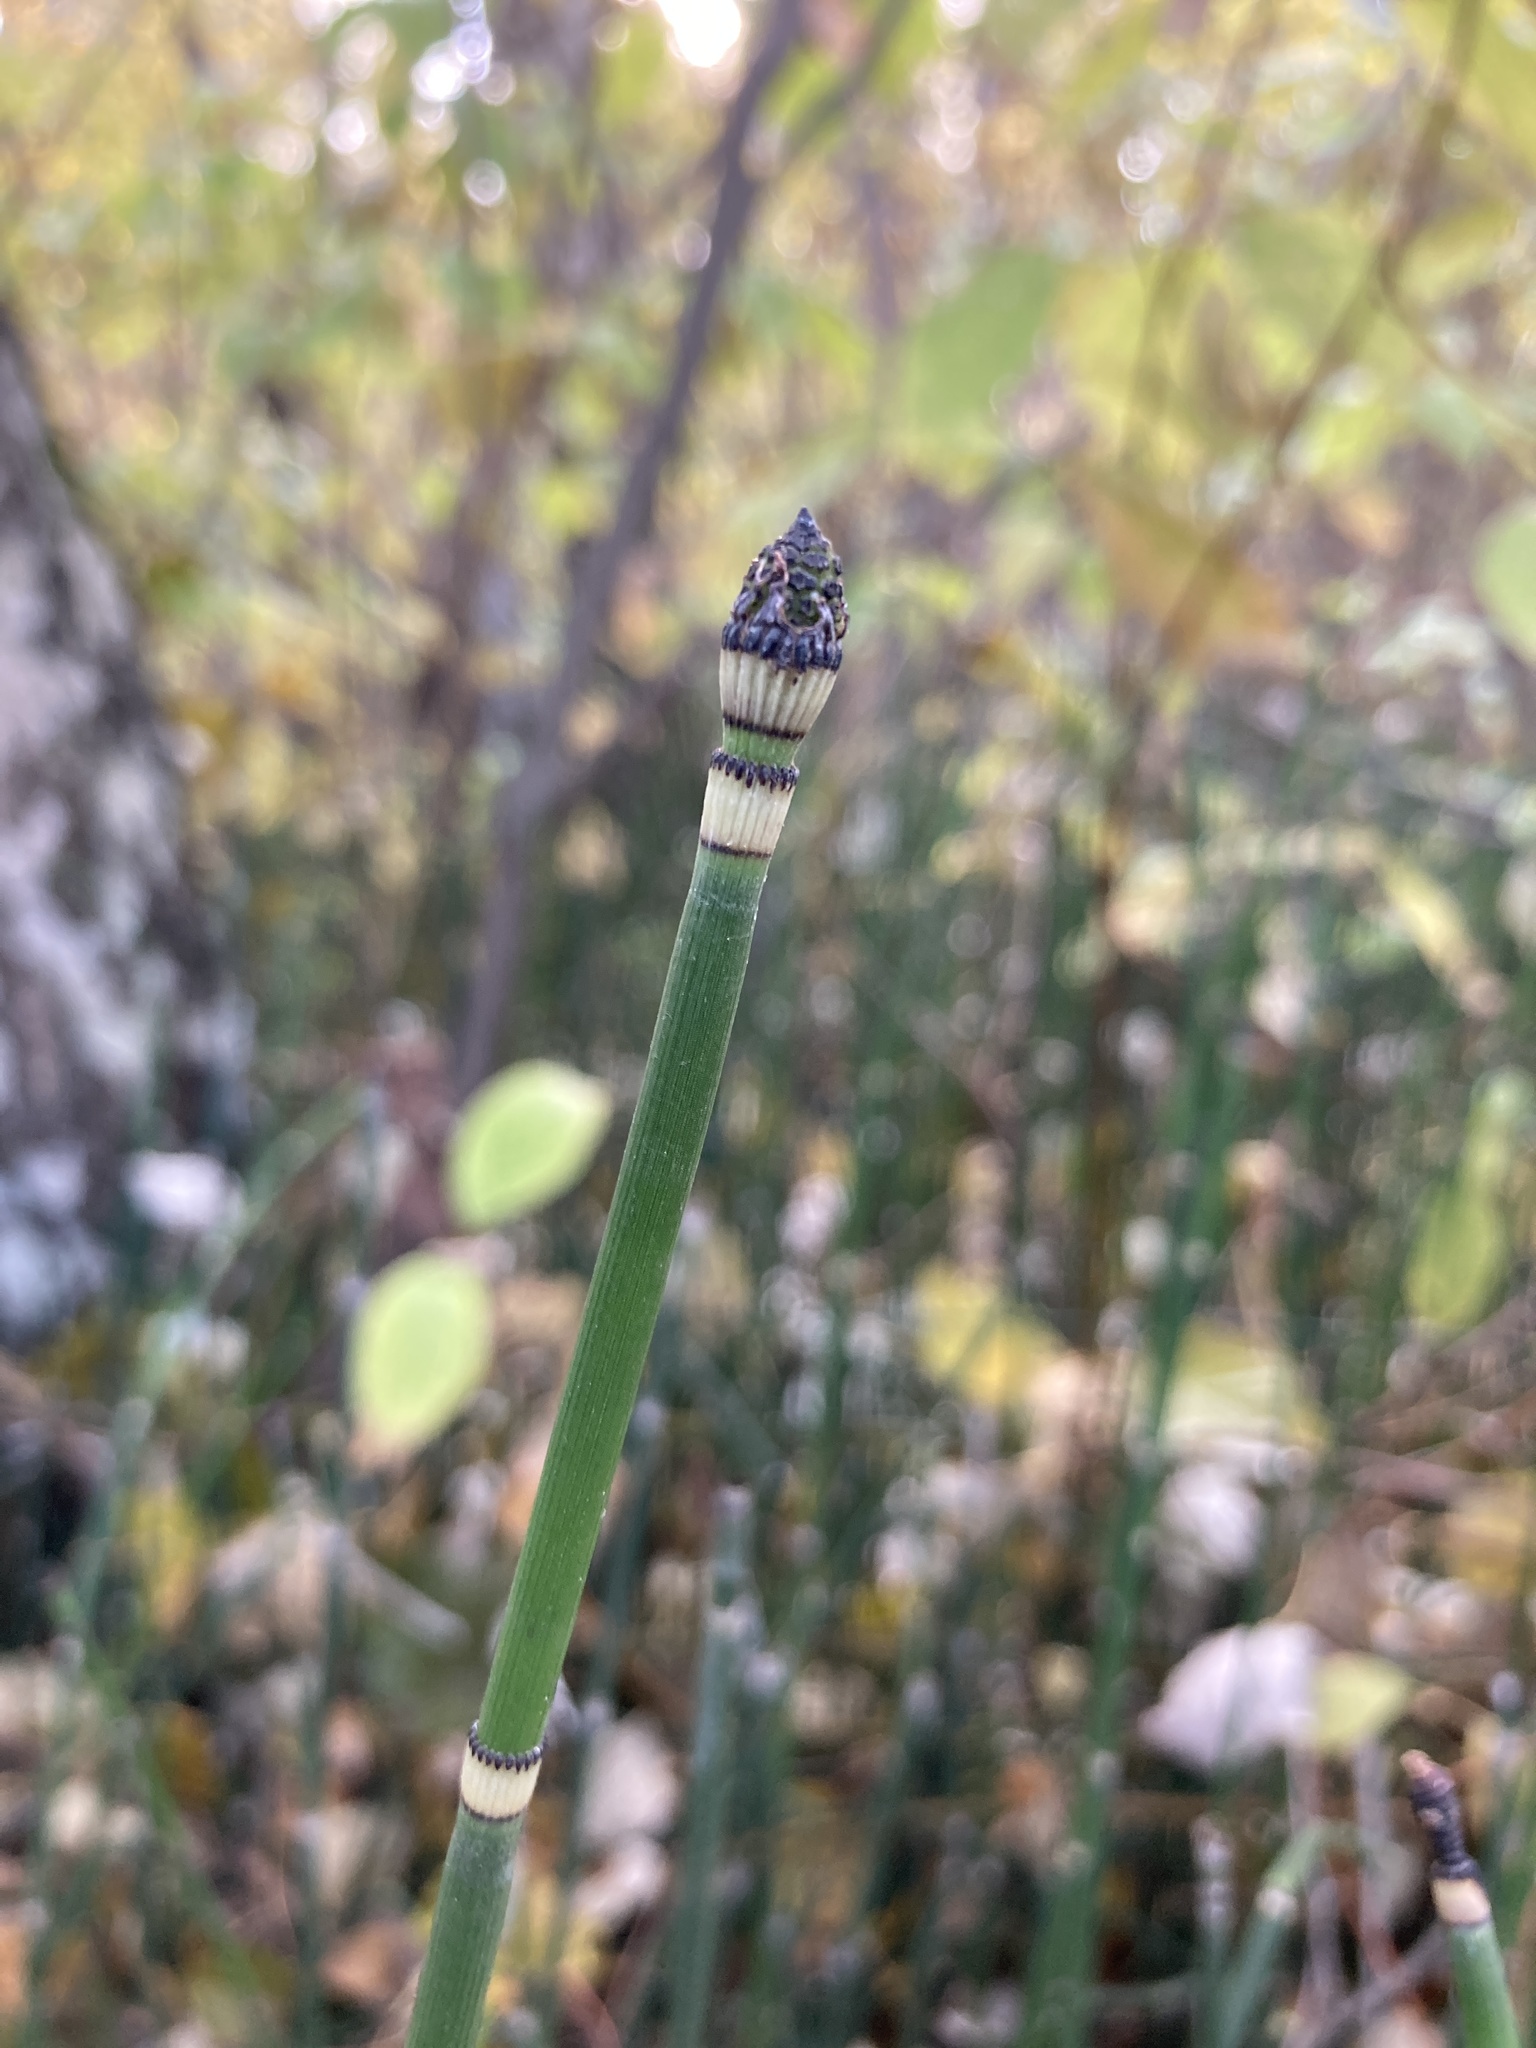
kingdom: Plantae
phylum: Tracheophyta
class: Polypodiopsida
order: Equisetales
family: Equisetaceae
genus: Equisetum
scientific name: Equisetum hyemale
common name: Rough horsetail
